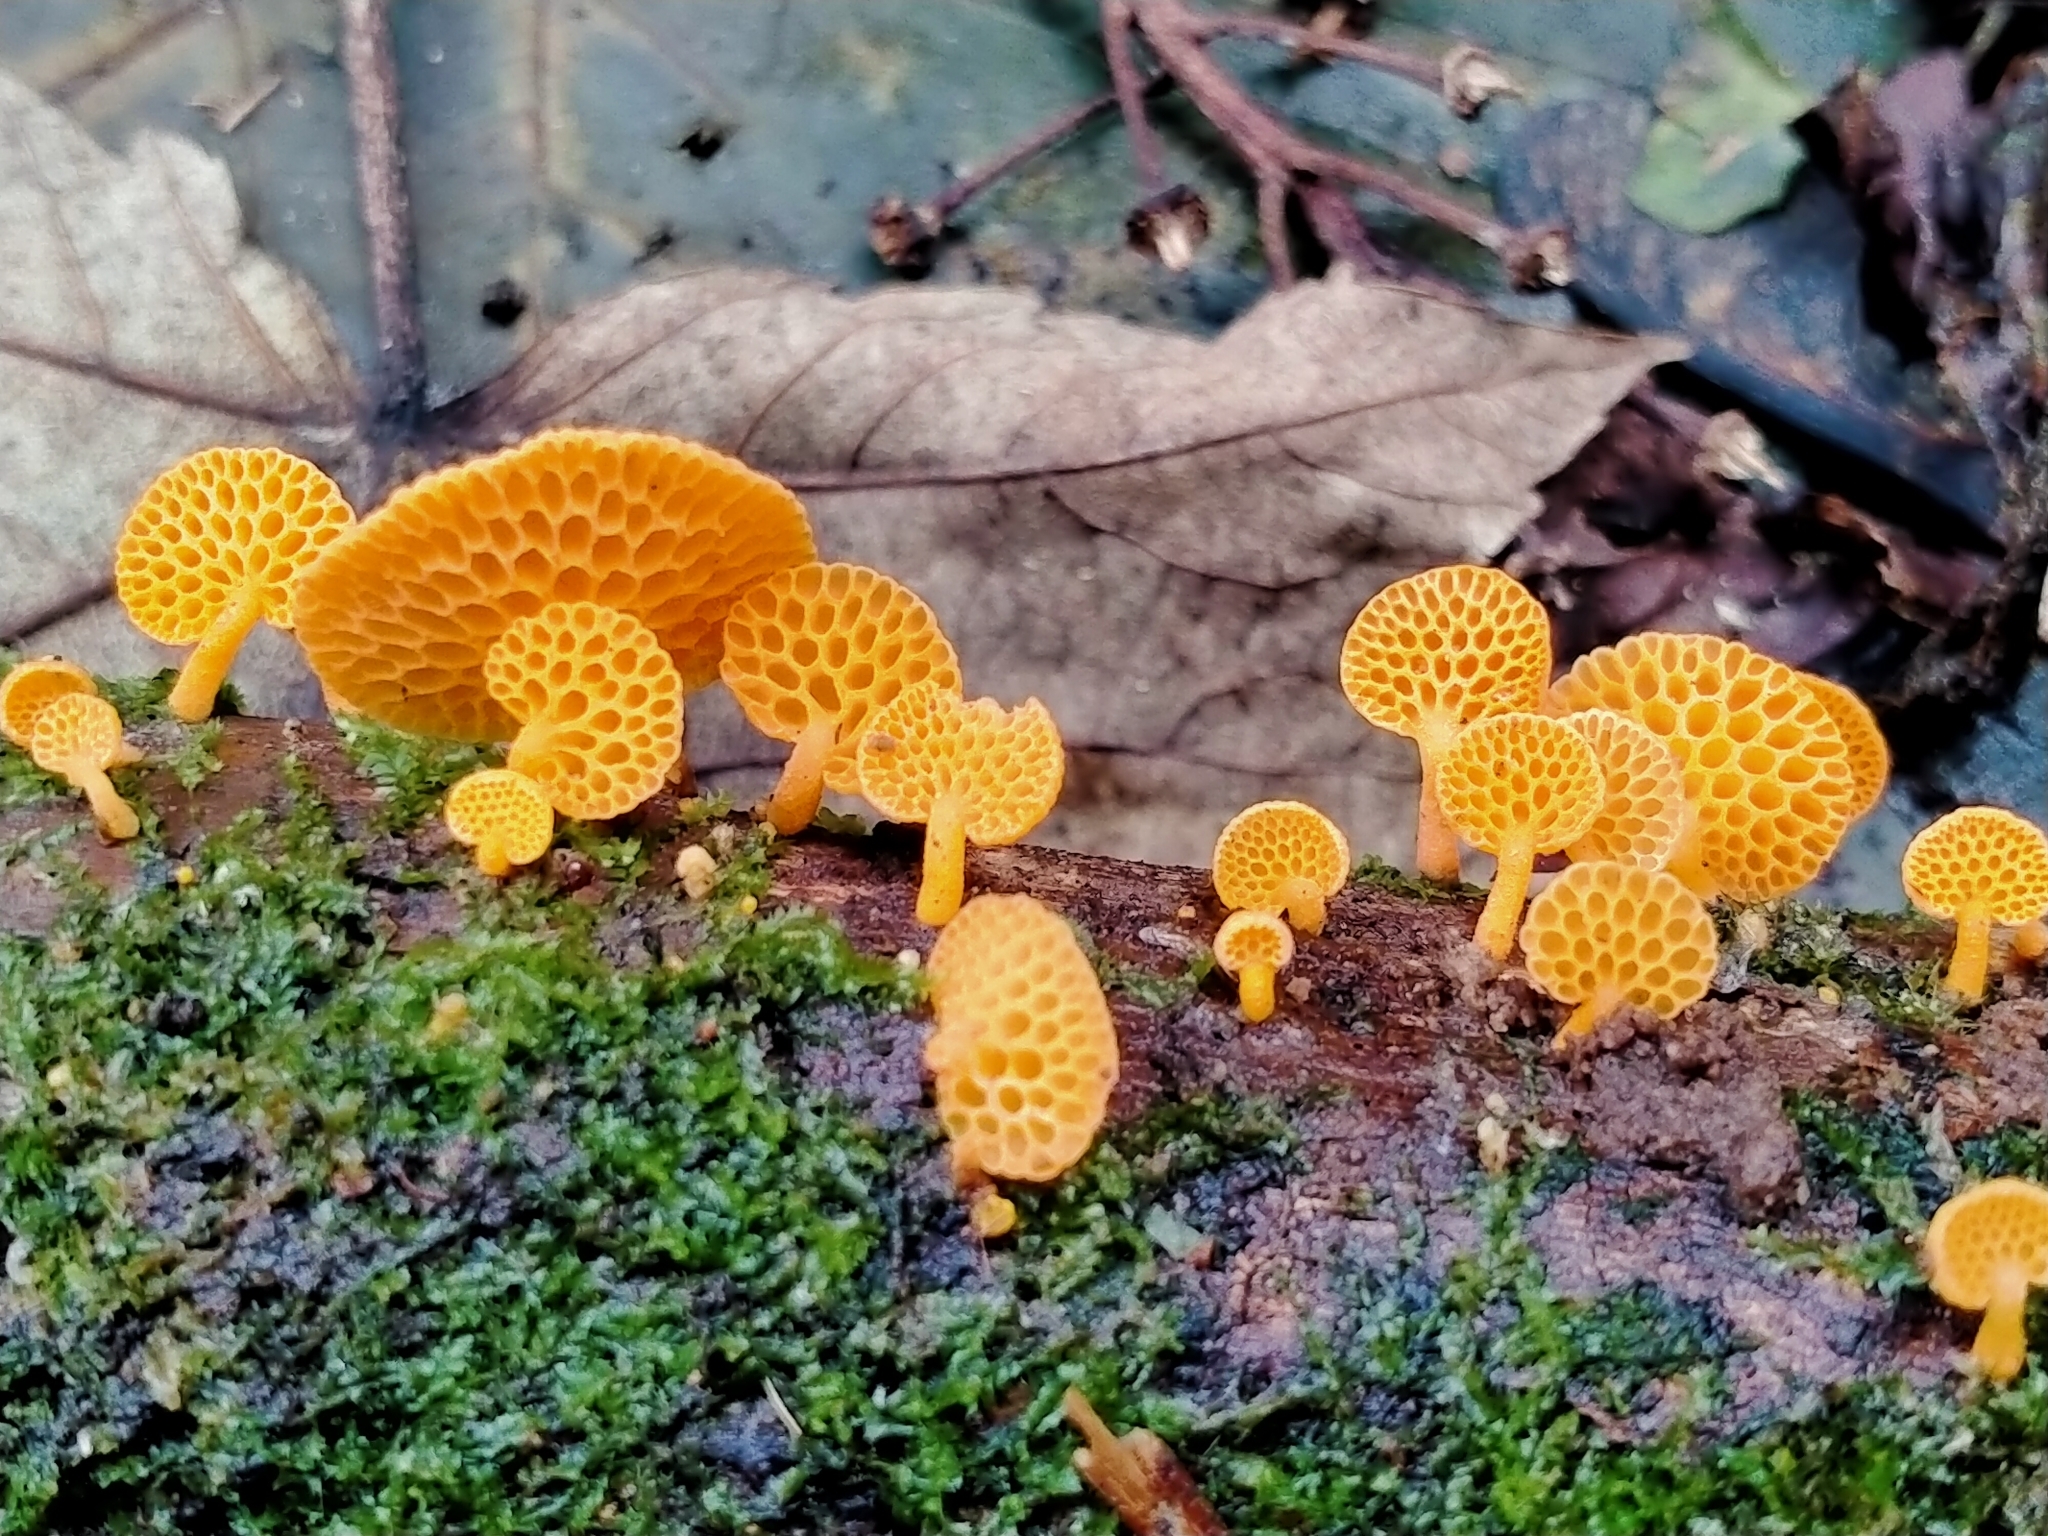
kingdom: Fungi
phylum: Basidiomycota
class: Agaricomycetes
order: Agaricales
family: Mycenaceae
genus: Favolaschia
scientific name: Favolaschia claudopus
